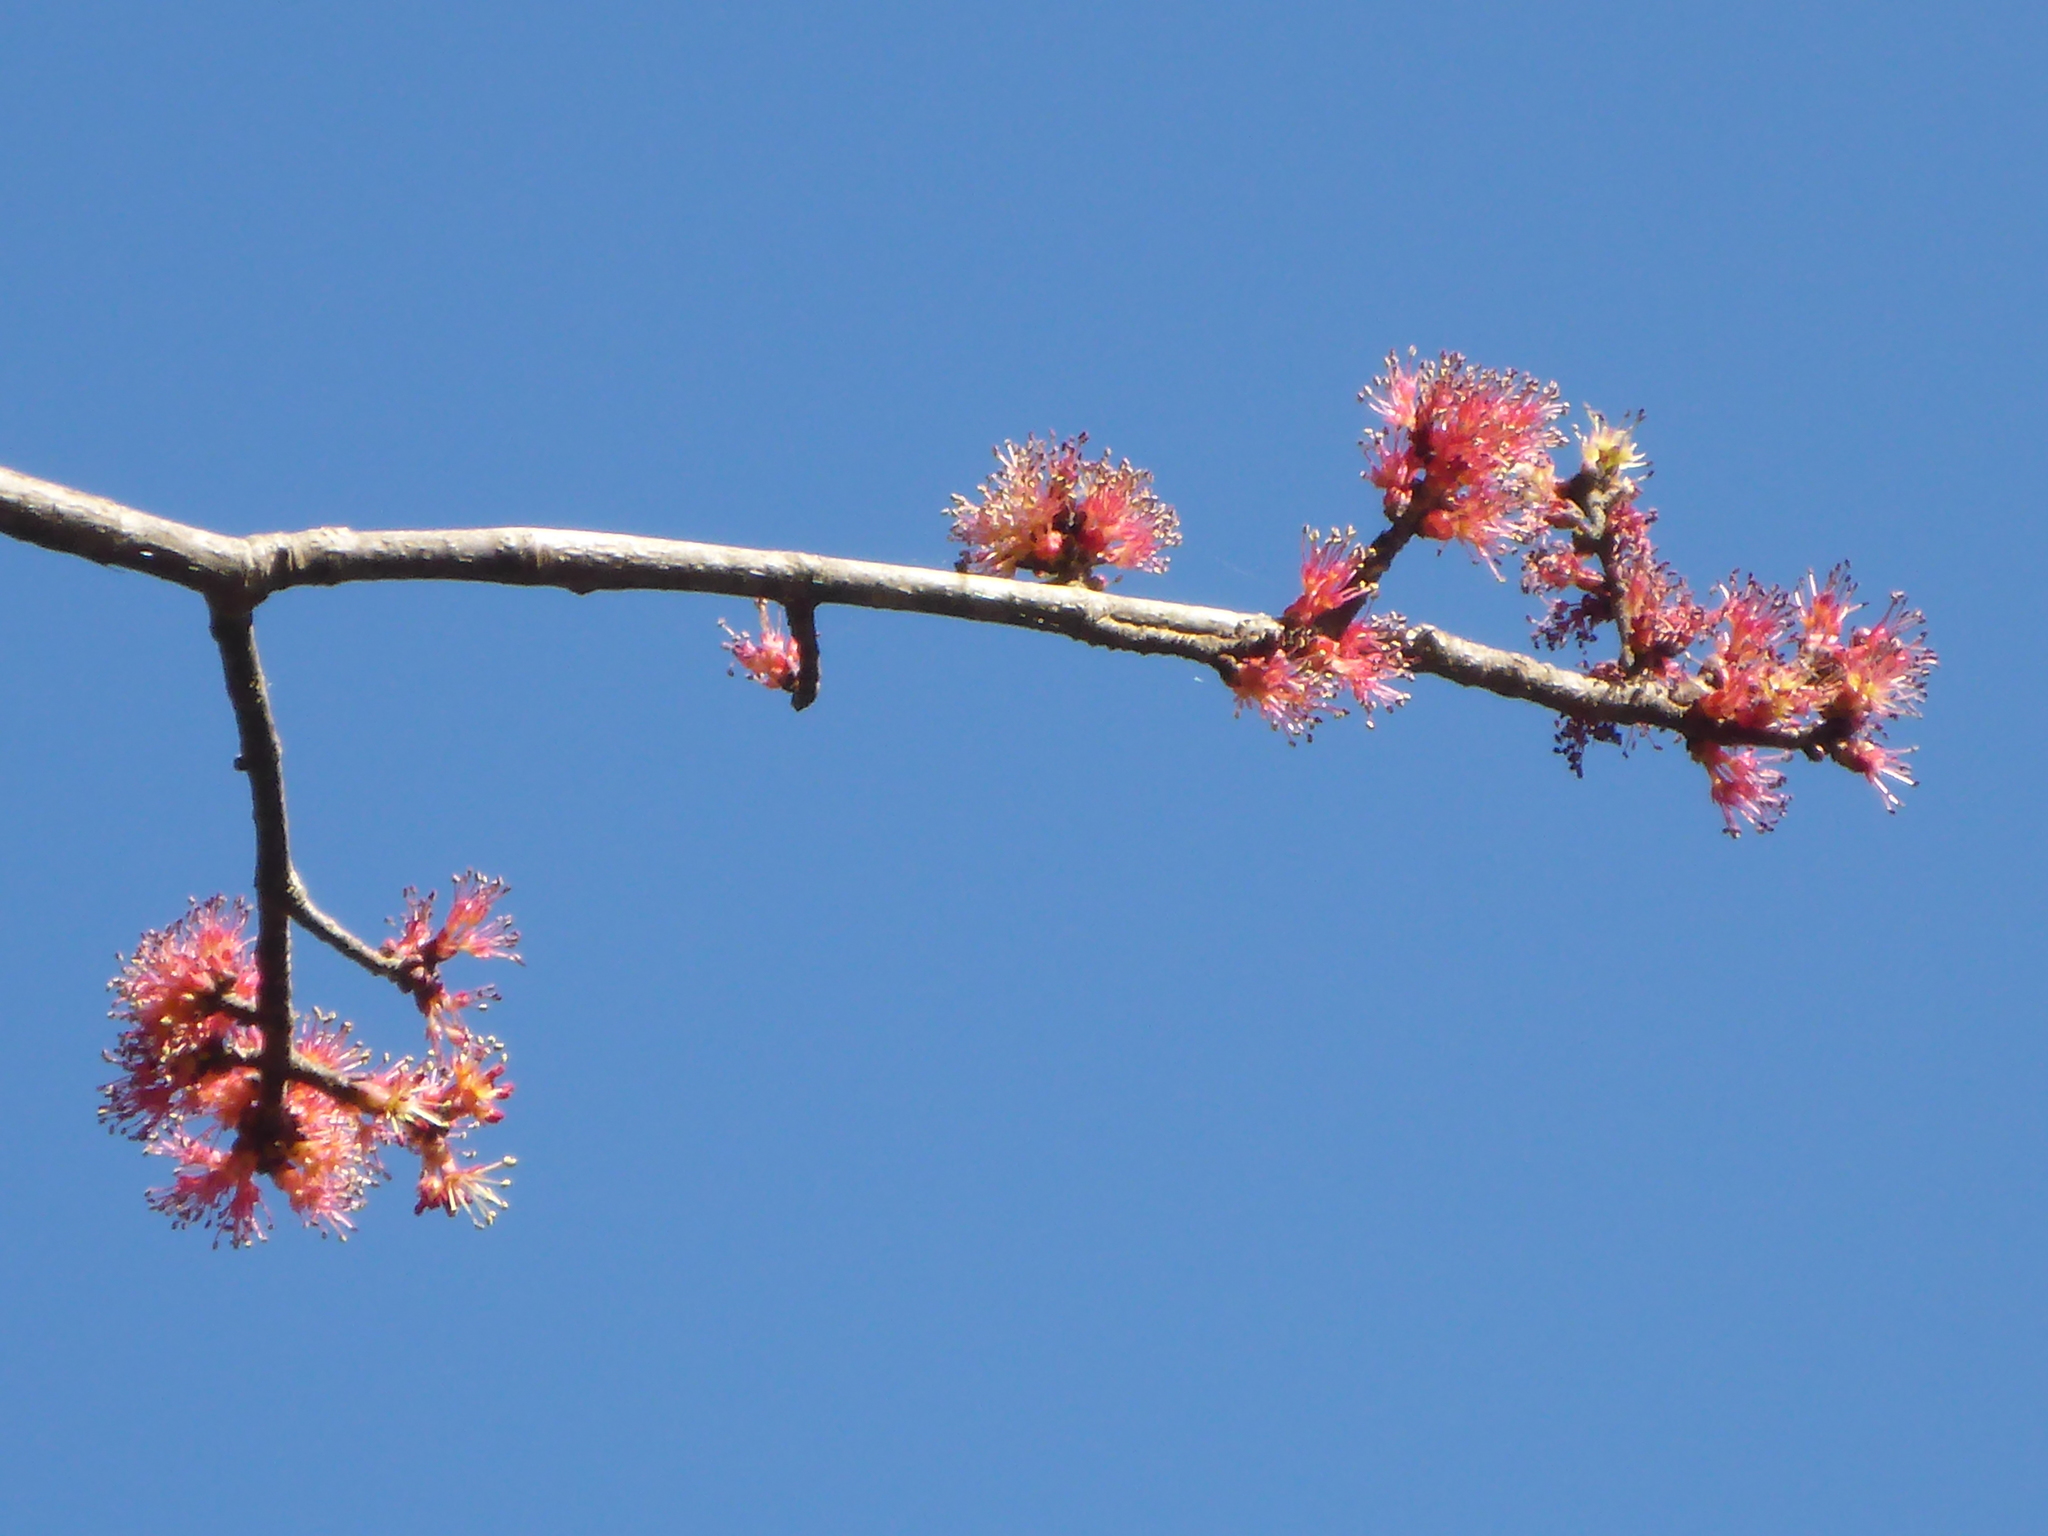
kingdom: Plantae
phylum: Tracheophyta
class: Magnoliopsida
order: Sapindales
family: Sapindaceae
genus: Acer
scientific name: Acer rubrum
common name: Red maple
